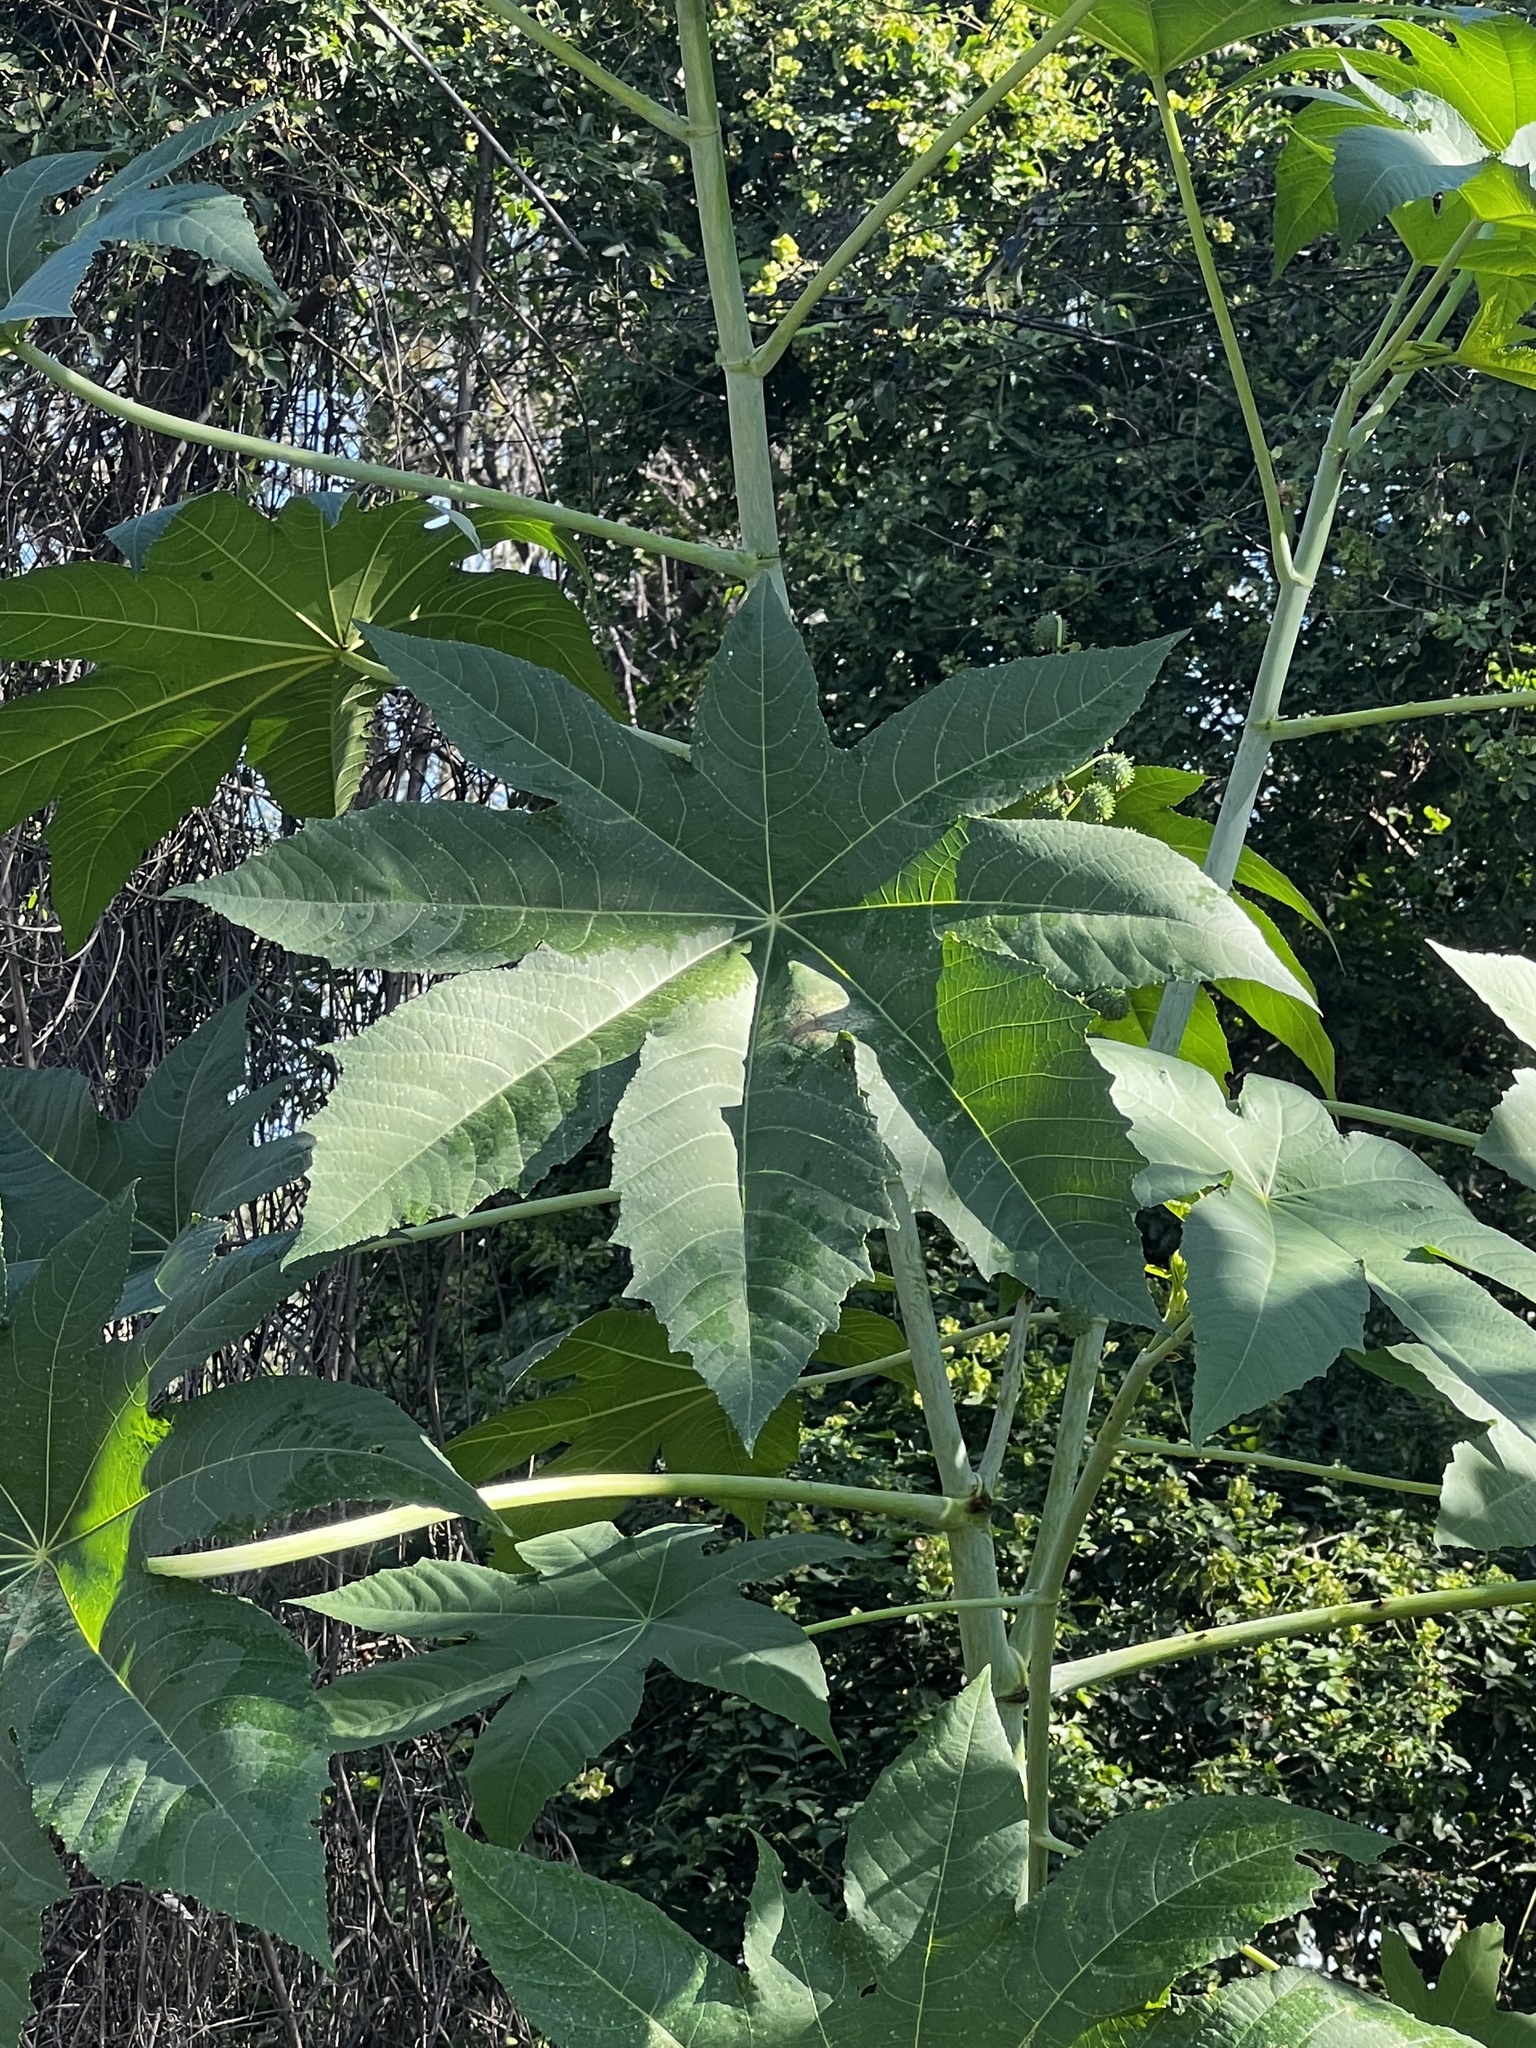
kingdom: Plantae
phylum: Tracheophyta
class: Magnoliopsida
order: Malpighiales
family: Euphorbiaceae
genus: Ricinus
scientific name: Ricinus communis
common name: Castor-oil-plant
